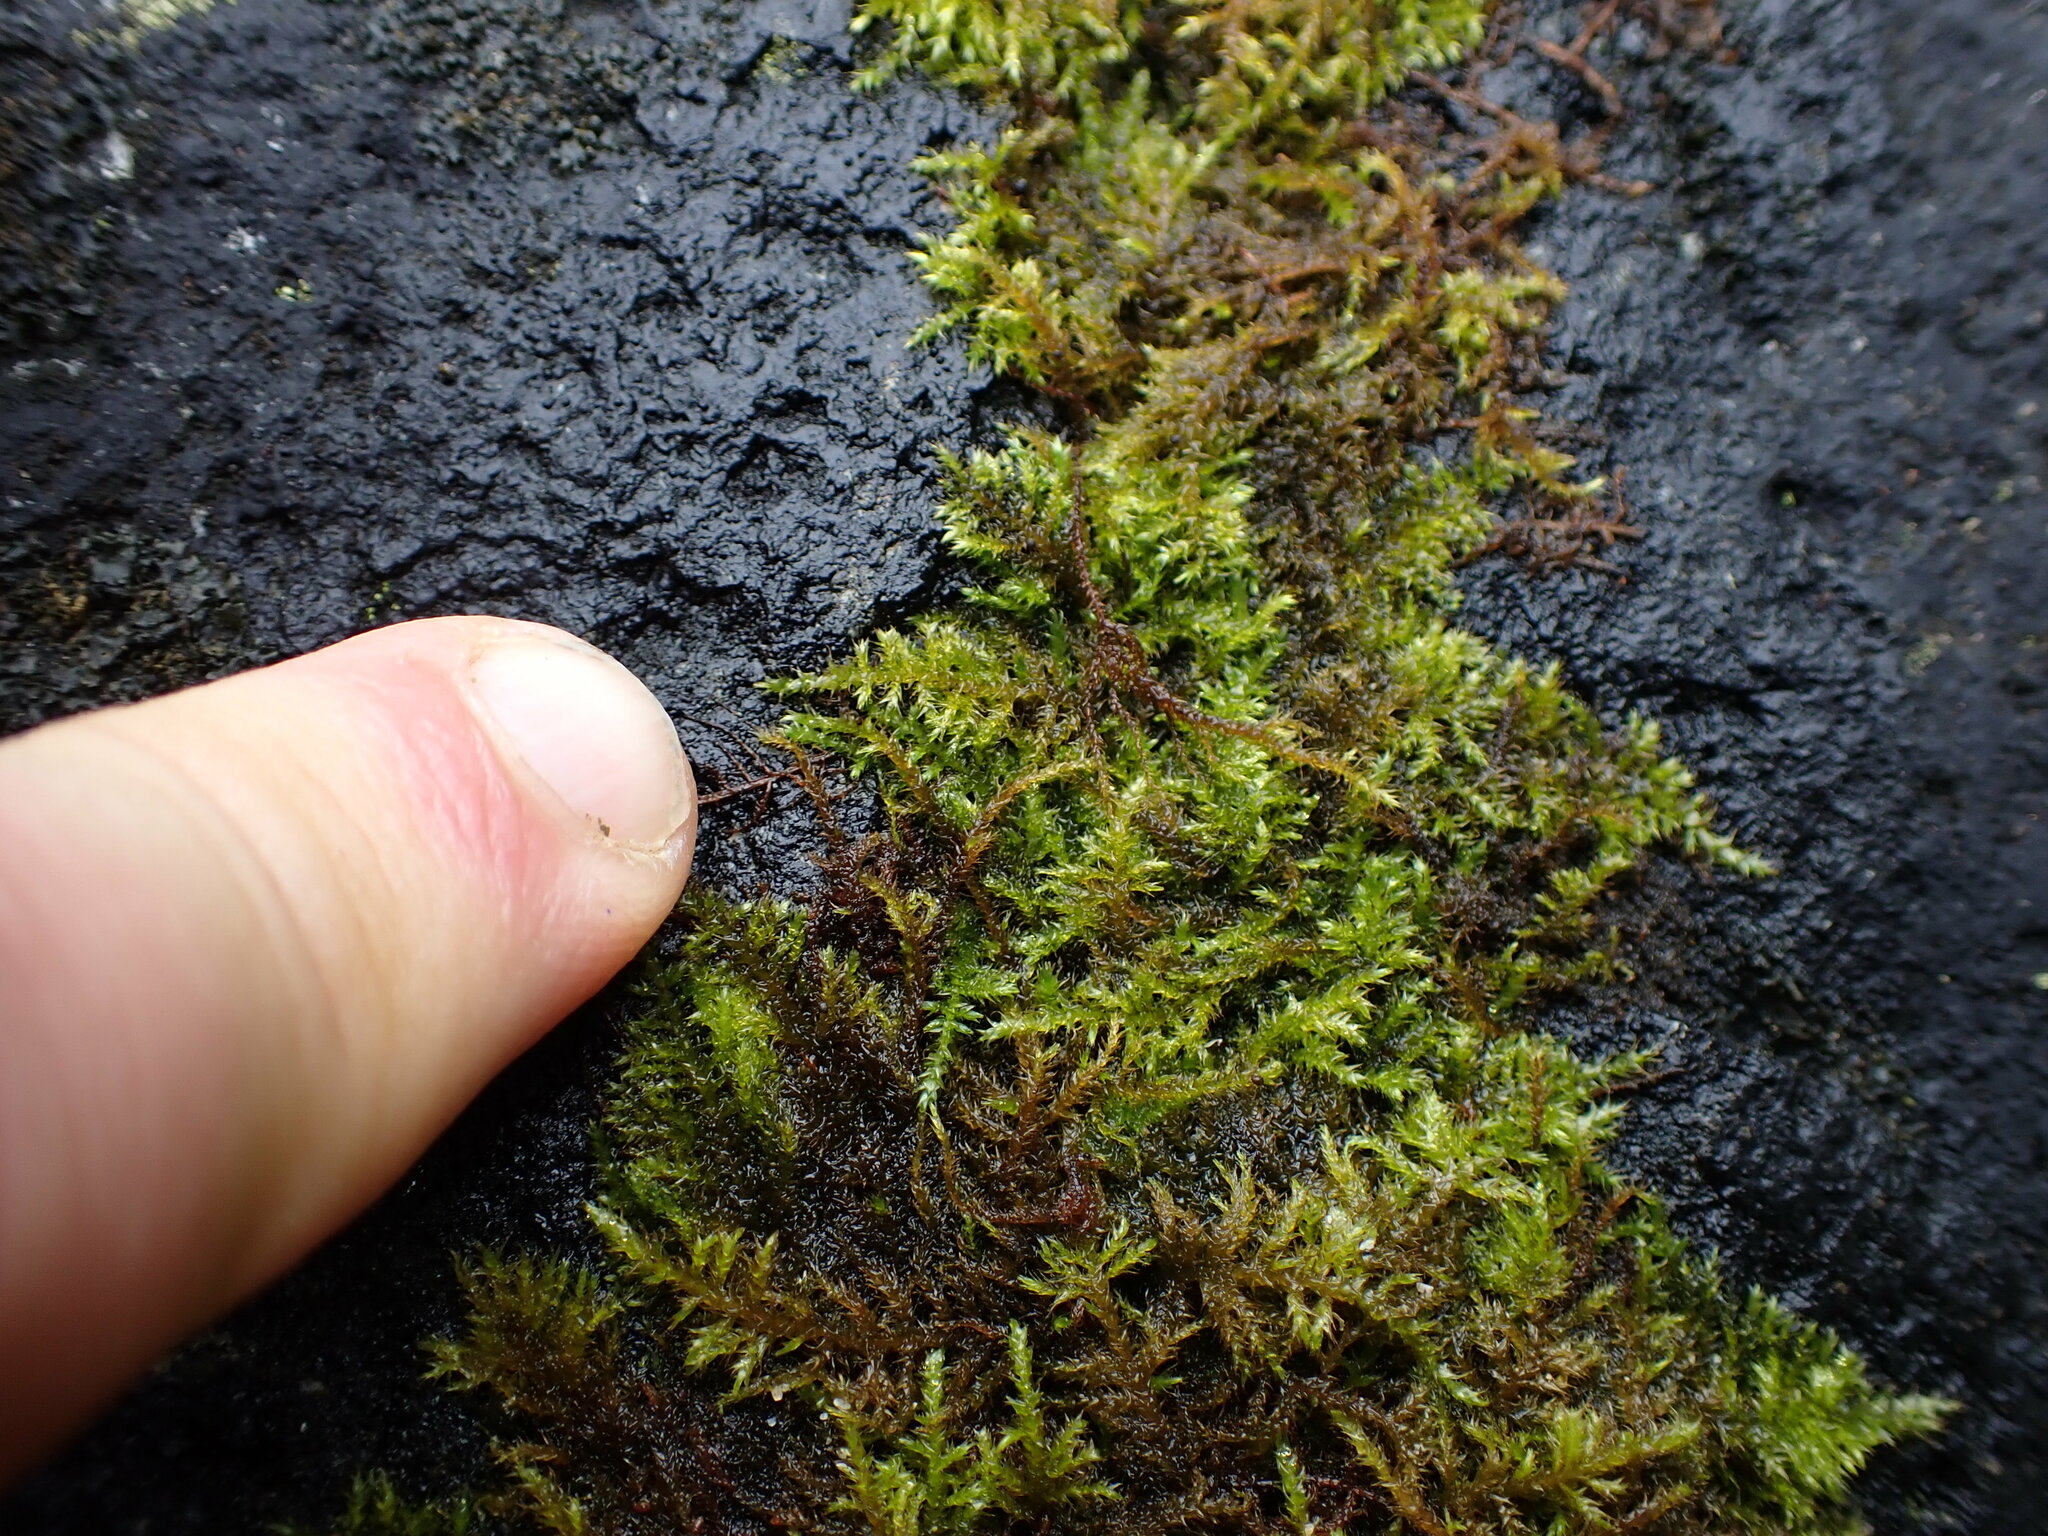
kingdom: Plantae
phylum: Bryophyta
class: Bryopsida
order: Hypnales
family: Brachytheciaceae
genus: Kindbergia
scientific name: Kindbergia praelonga
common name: Slender beaked moss
